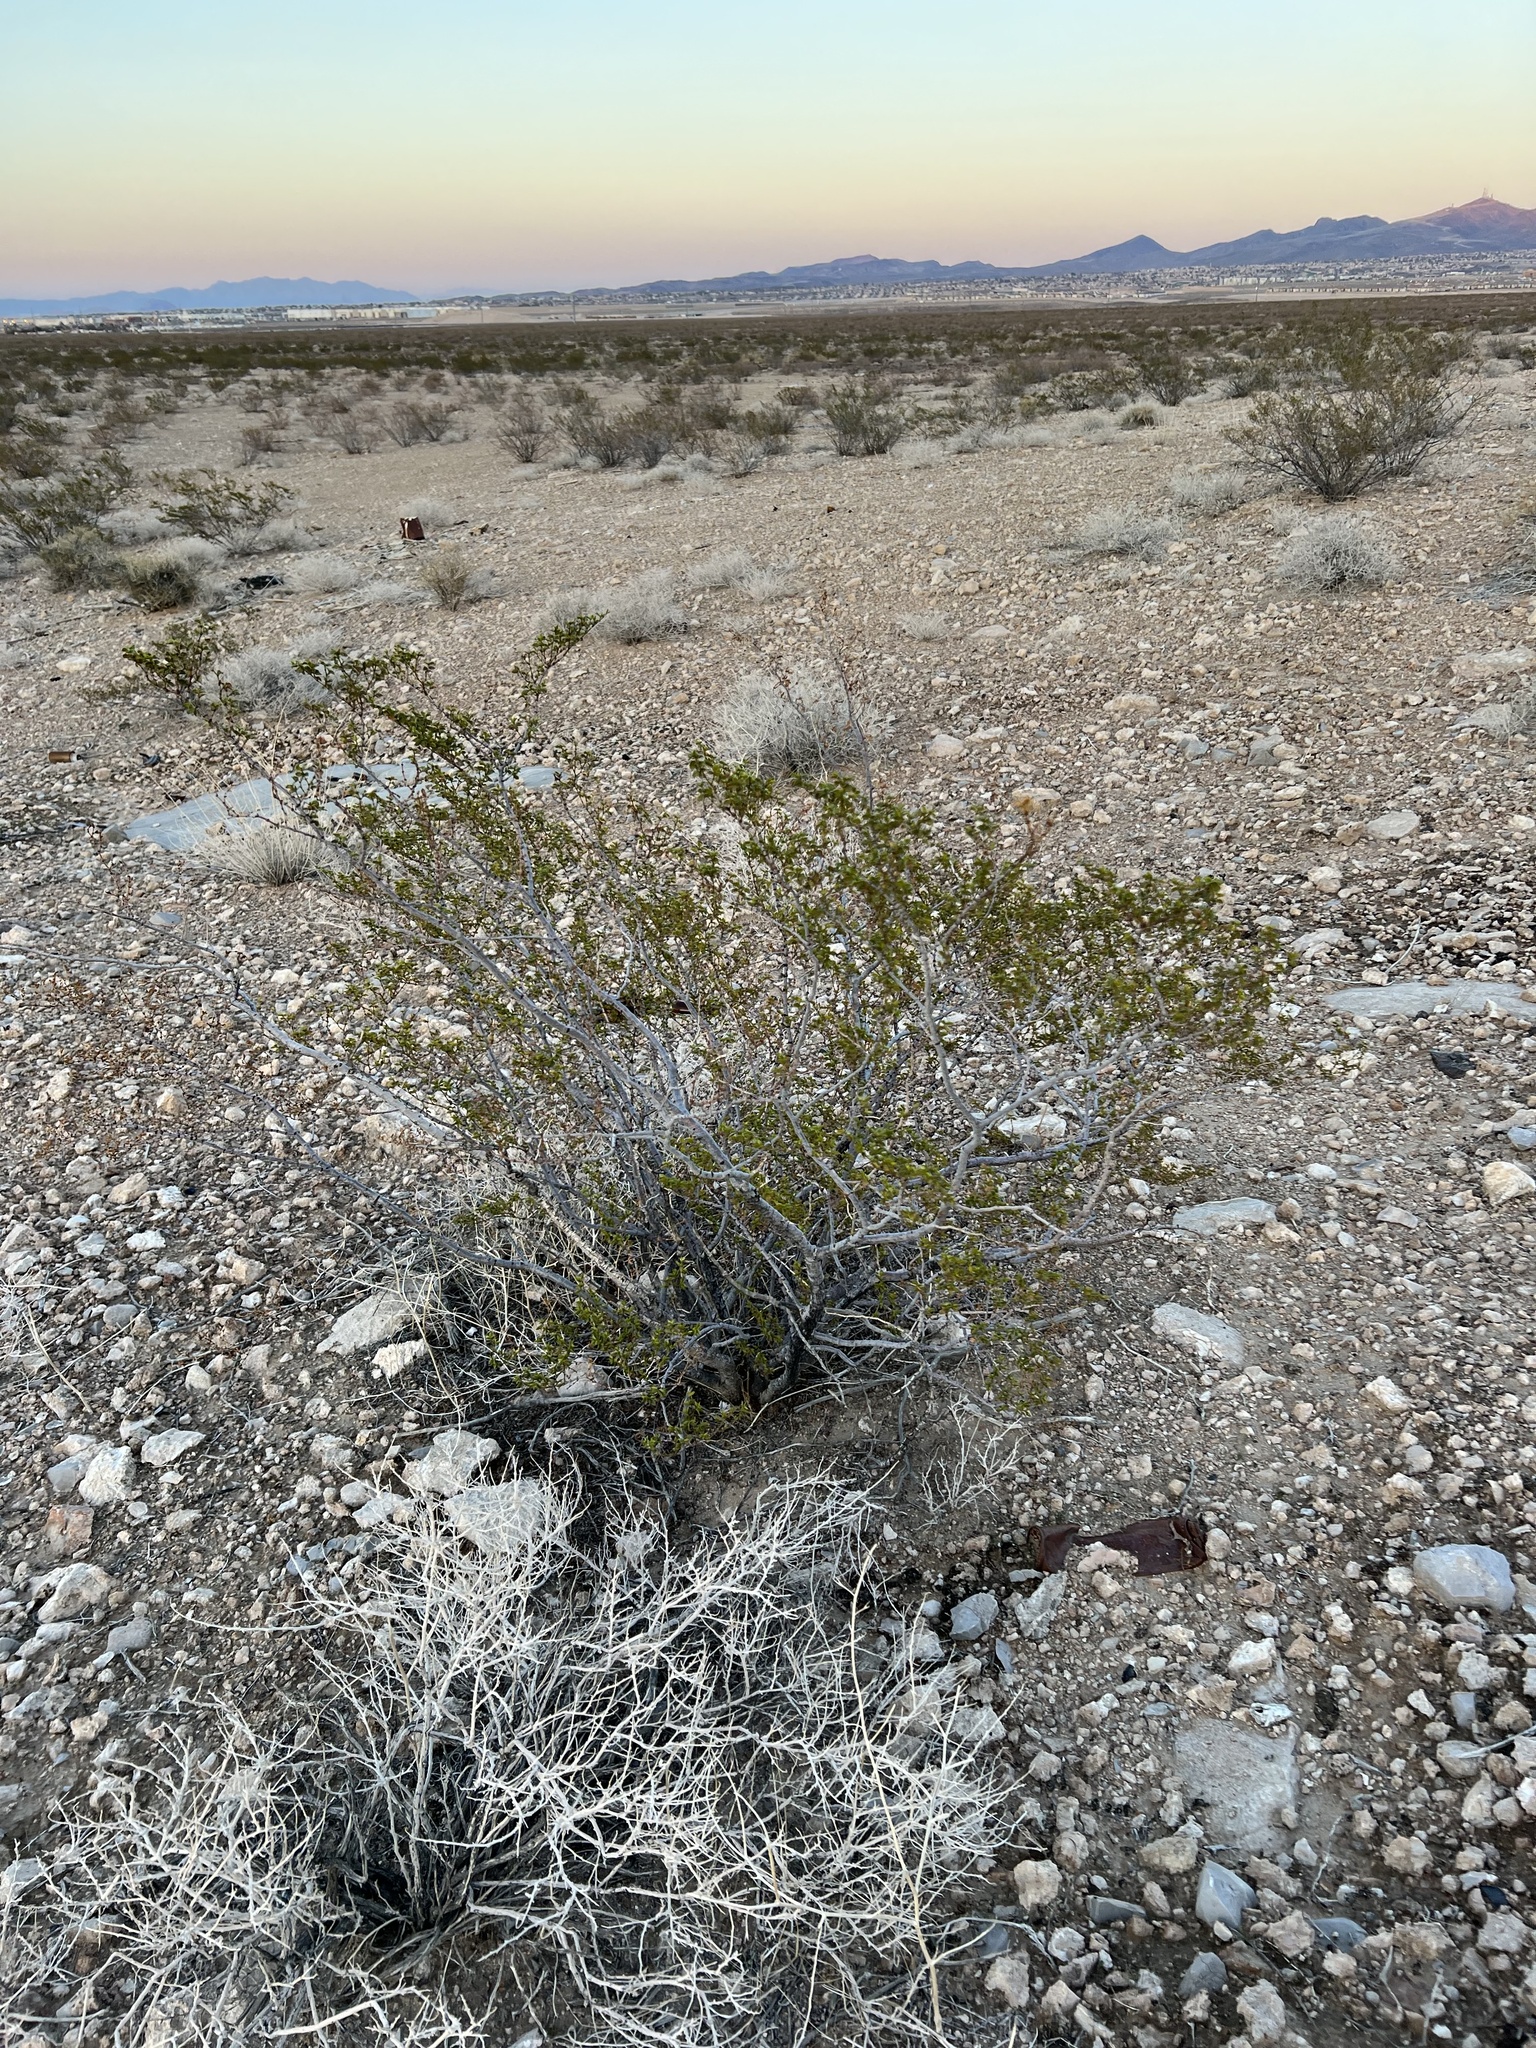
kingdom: Plantae
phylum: Tracheophyta
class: Magnoliopsida
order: Zygophyllales
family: Zygophyllaceae
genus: Larrea
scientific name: Larrea tridentata
